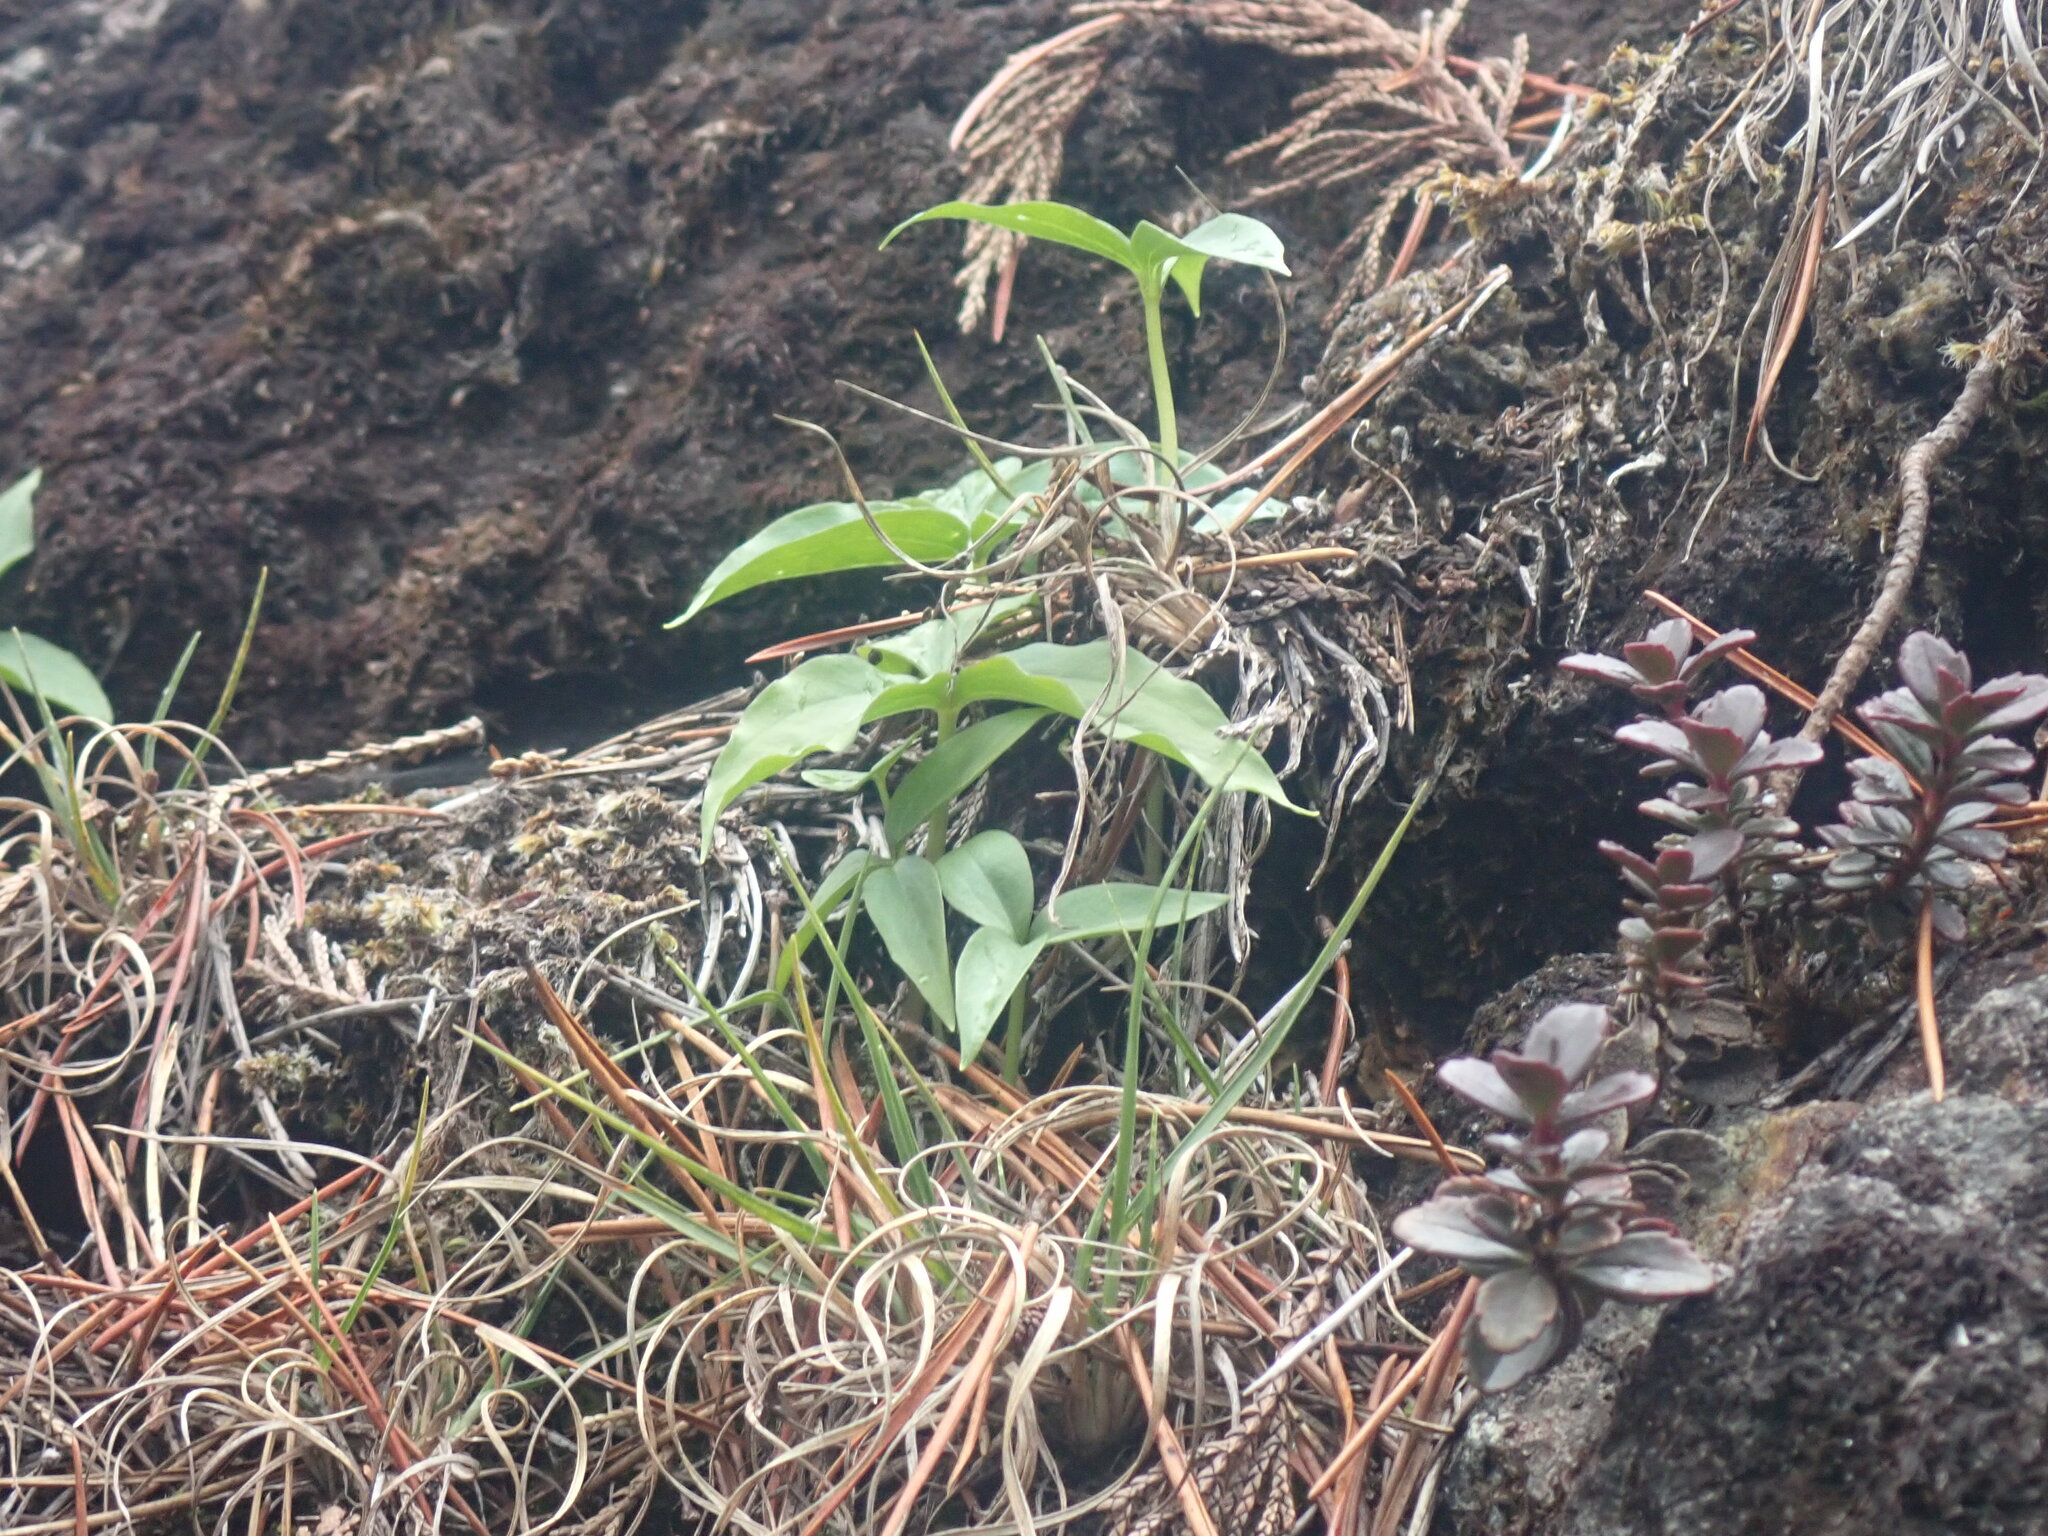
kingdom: Plantae
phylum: Tracheophyta
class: Liliopsida
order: Liliales
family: Melanthiaceae
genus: Trillium
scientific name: Trillium hibbersonii
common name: Hibberson's trillium
